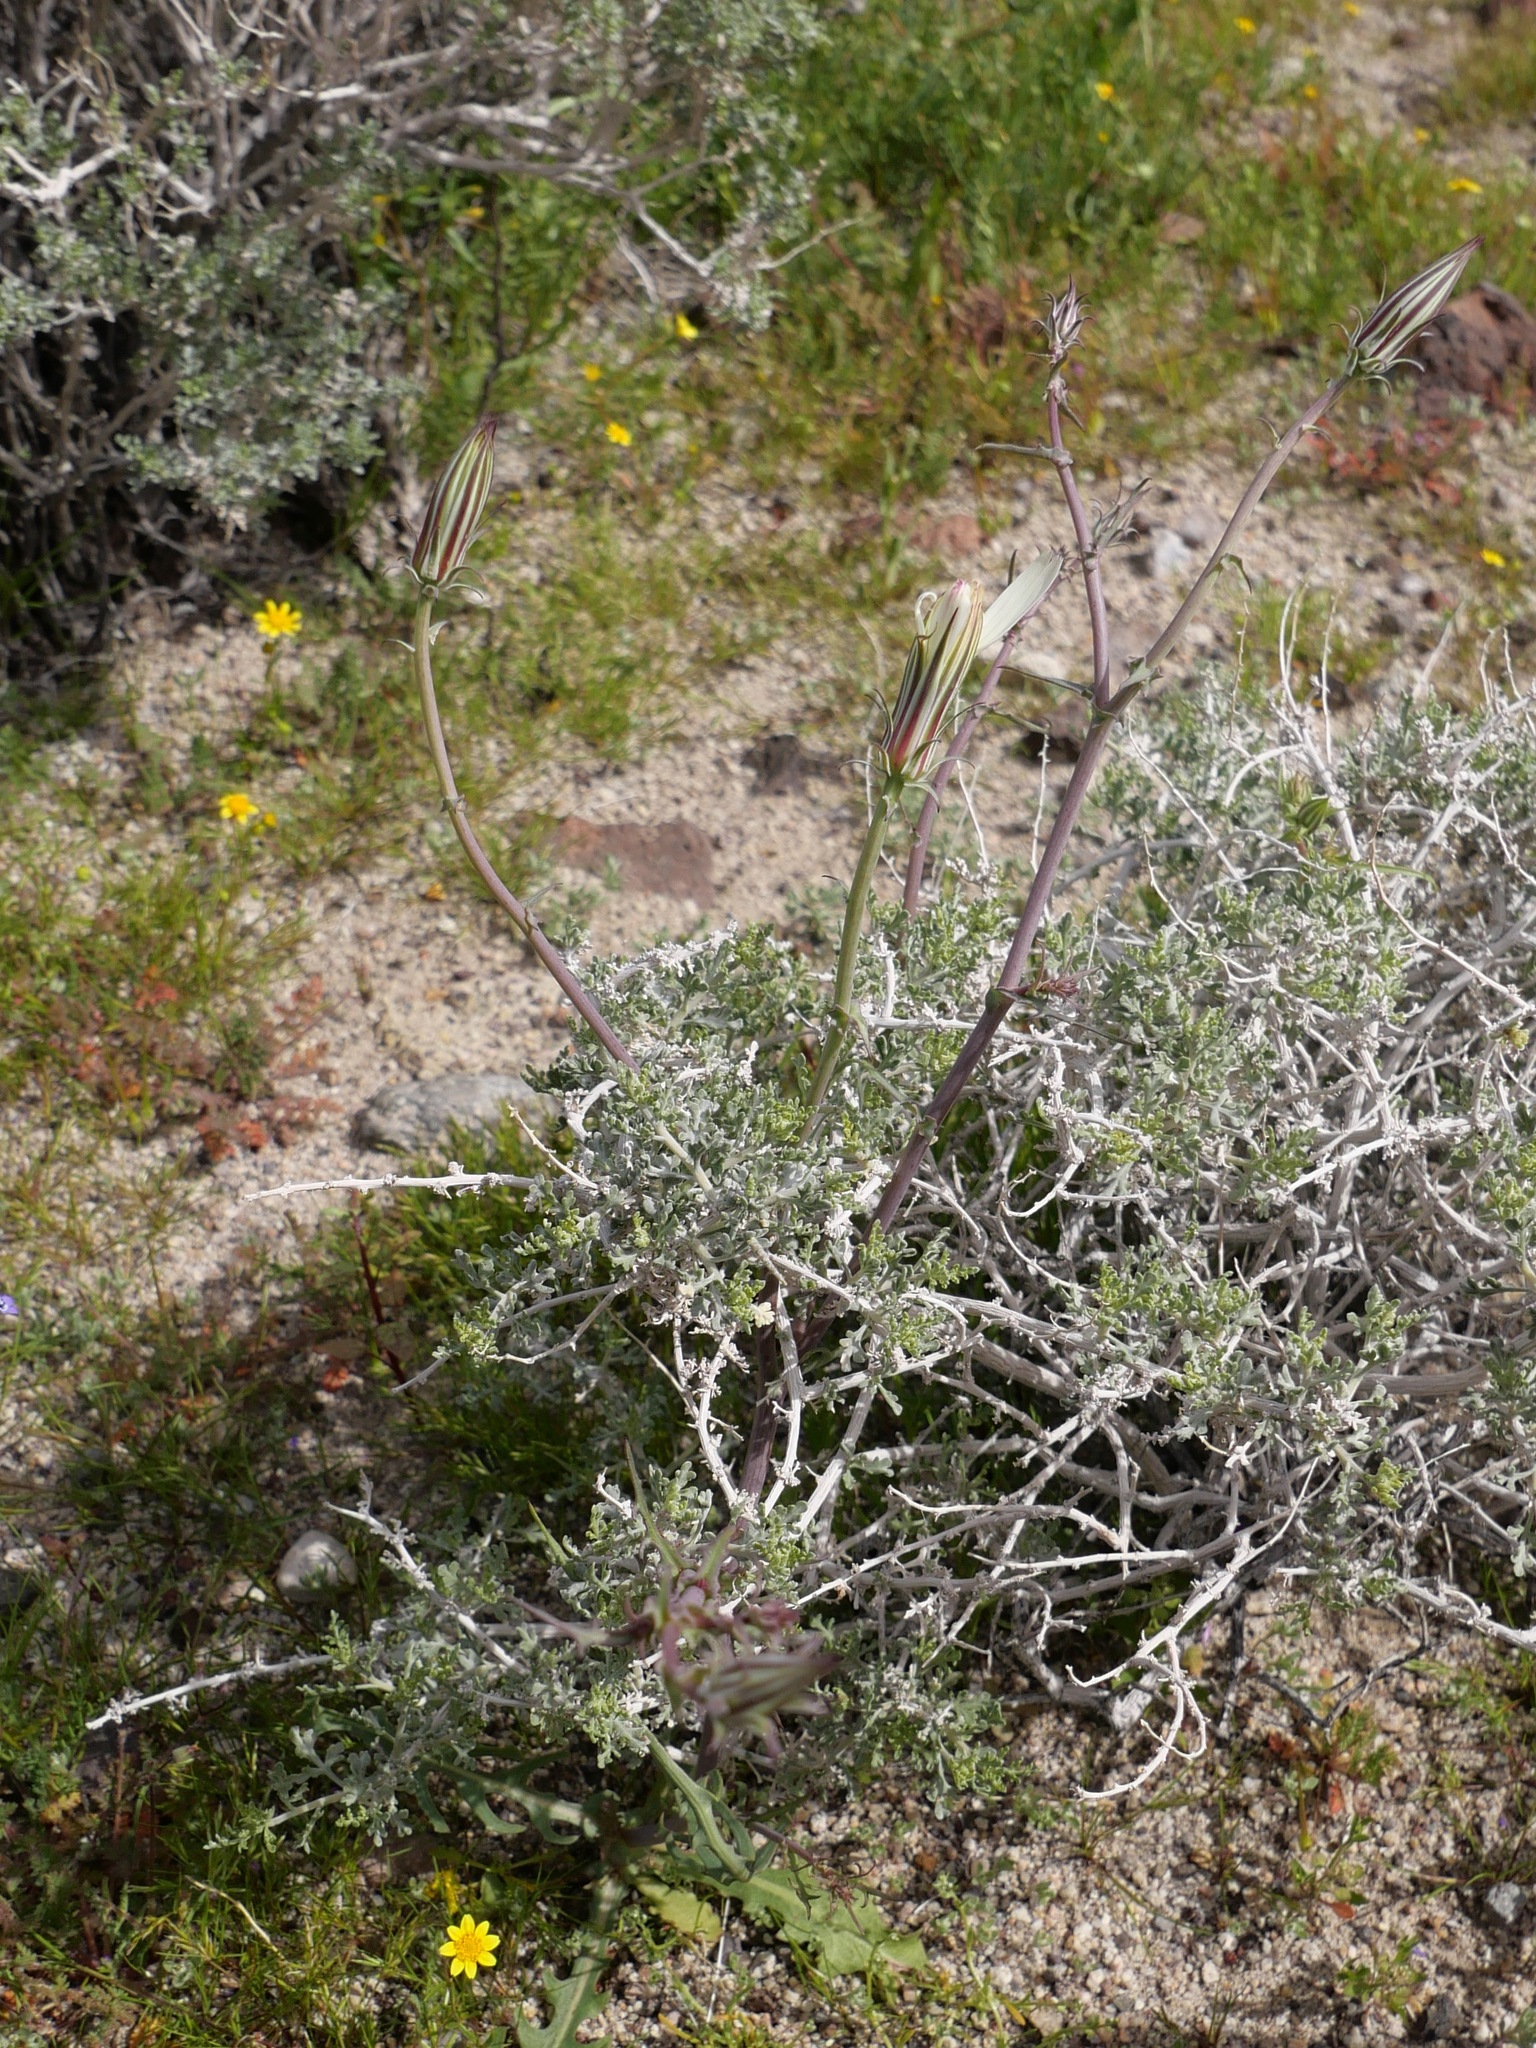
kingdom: Plantae
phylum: Tracheophyta
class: Magnoliopsida
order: Asterales
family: Asteraceae
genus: Rafinesquia
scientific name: Rafinesquia neomexicana
